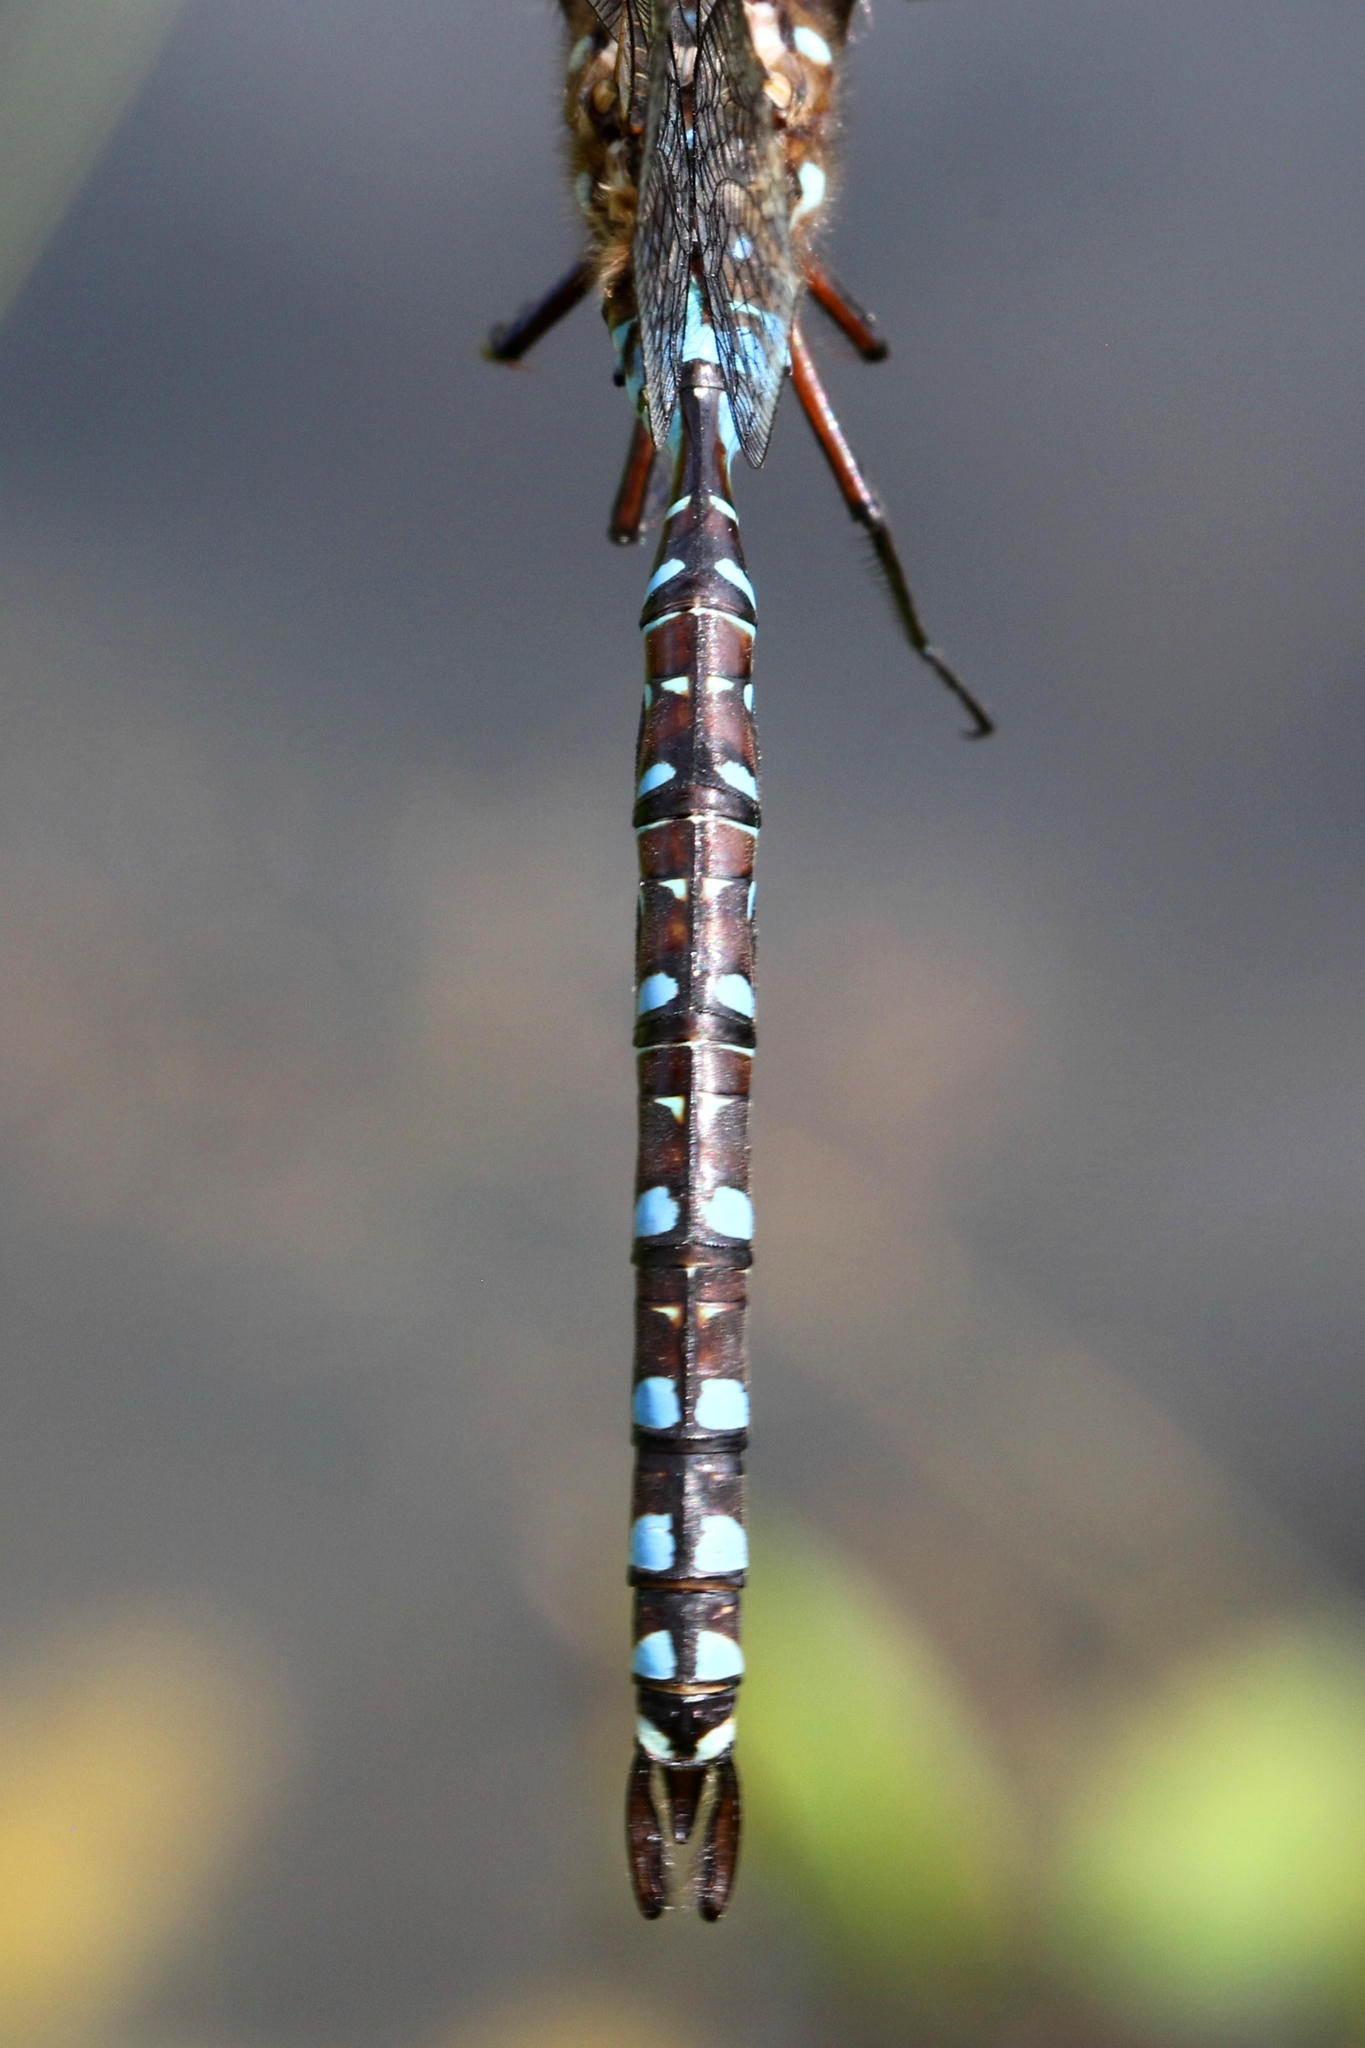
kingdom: Animalia
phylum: Arthropoda
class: Insecta
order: Odonata
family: Aeshnidae
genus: Aeshna
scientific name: Aeshna interrupta
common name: Variable darner
